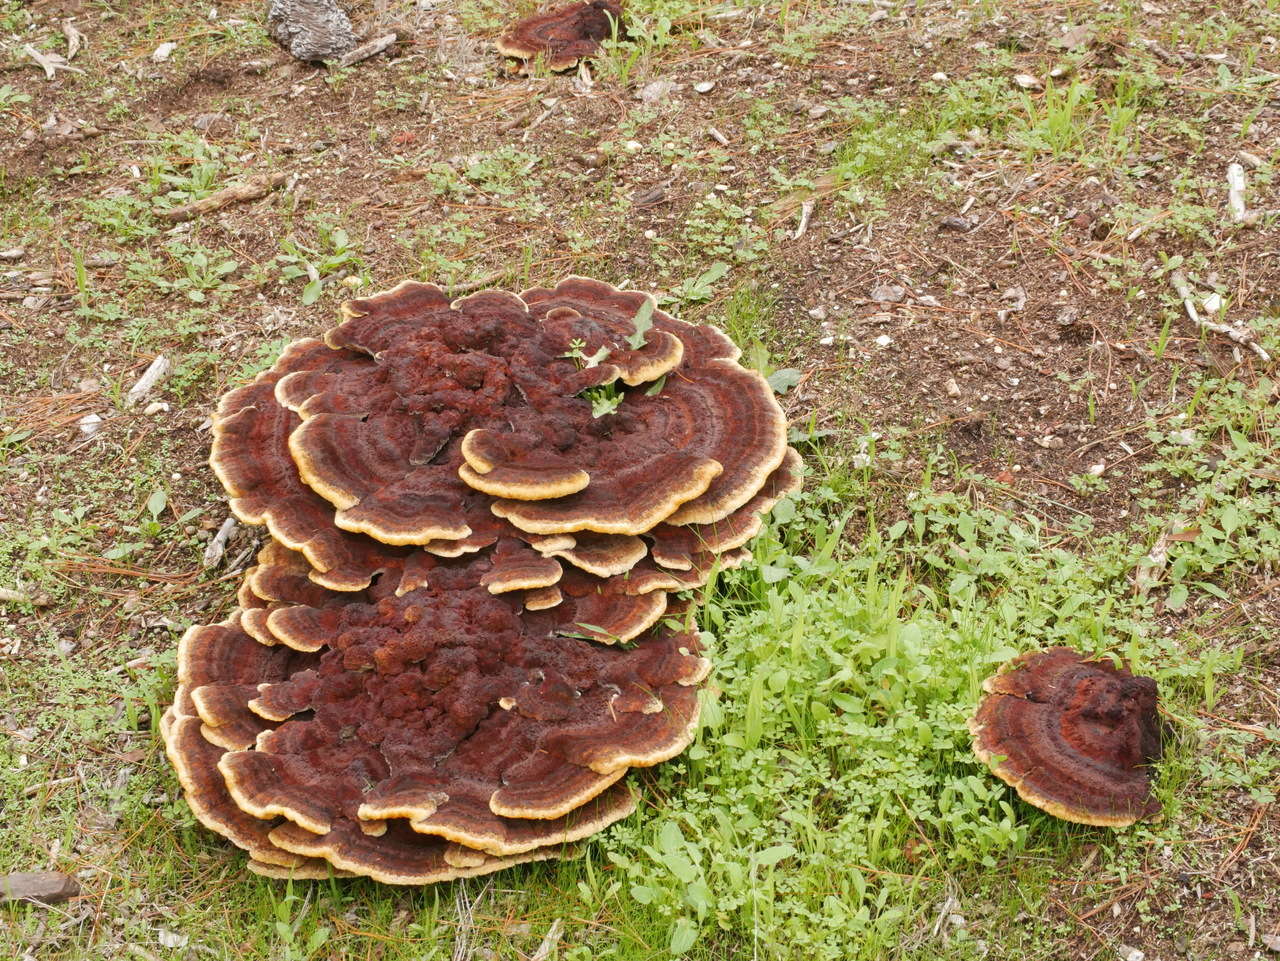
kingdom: Fungi
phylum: Basidiomycota
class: Agaricomycetes
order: Polyporales
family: Laetiporaceae
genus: Phaeolus
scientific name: Phaeolus schweinitzii
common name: Dyer's mazegill
